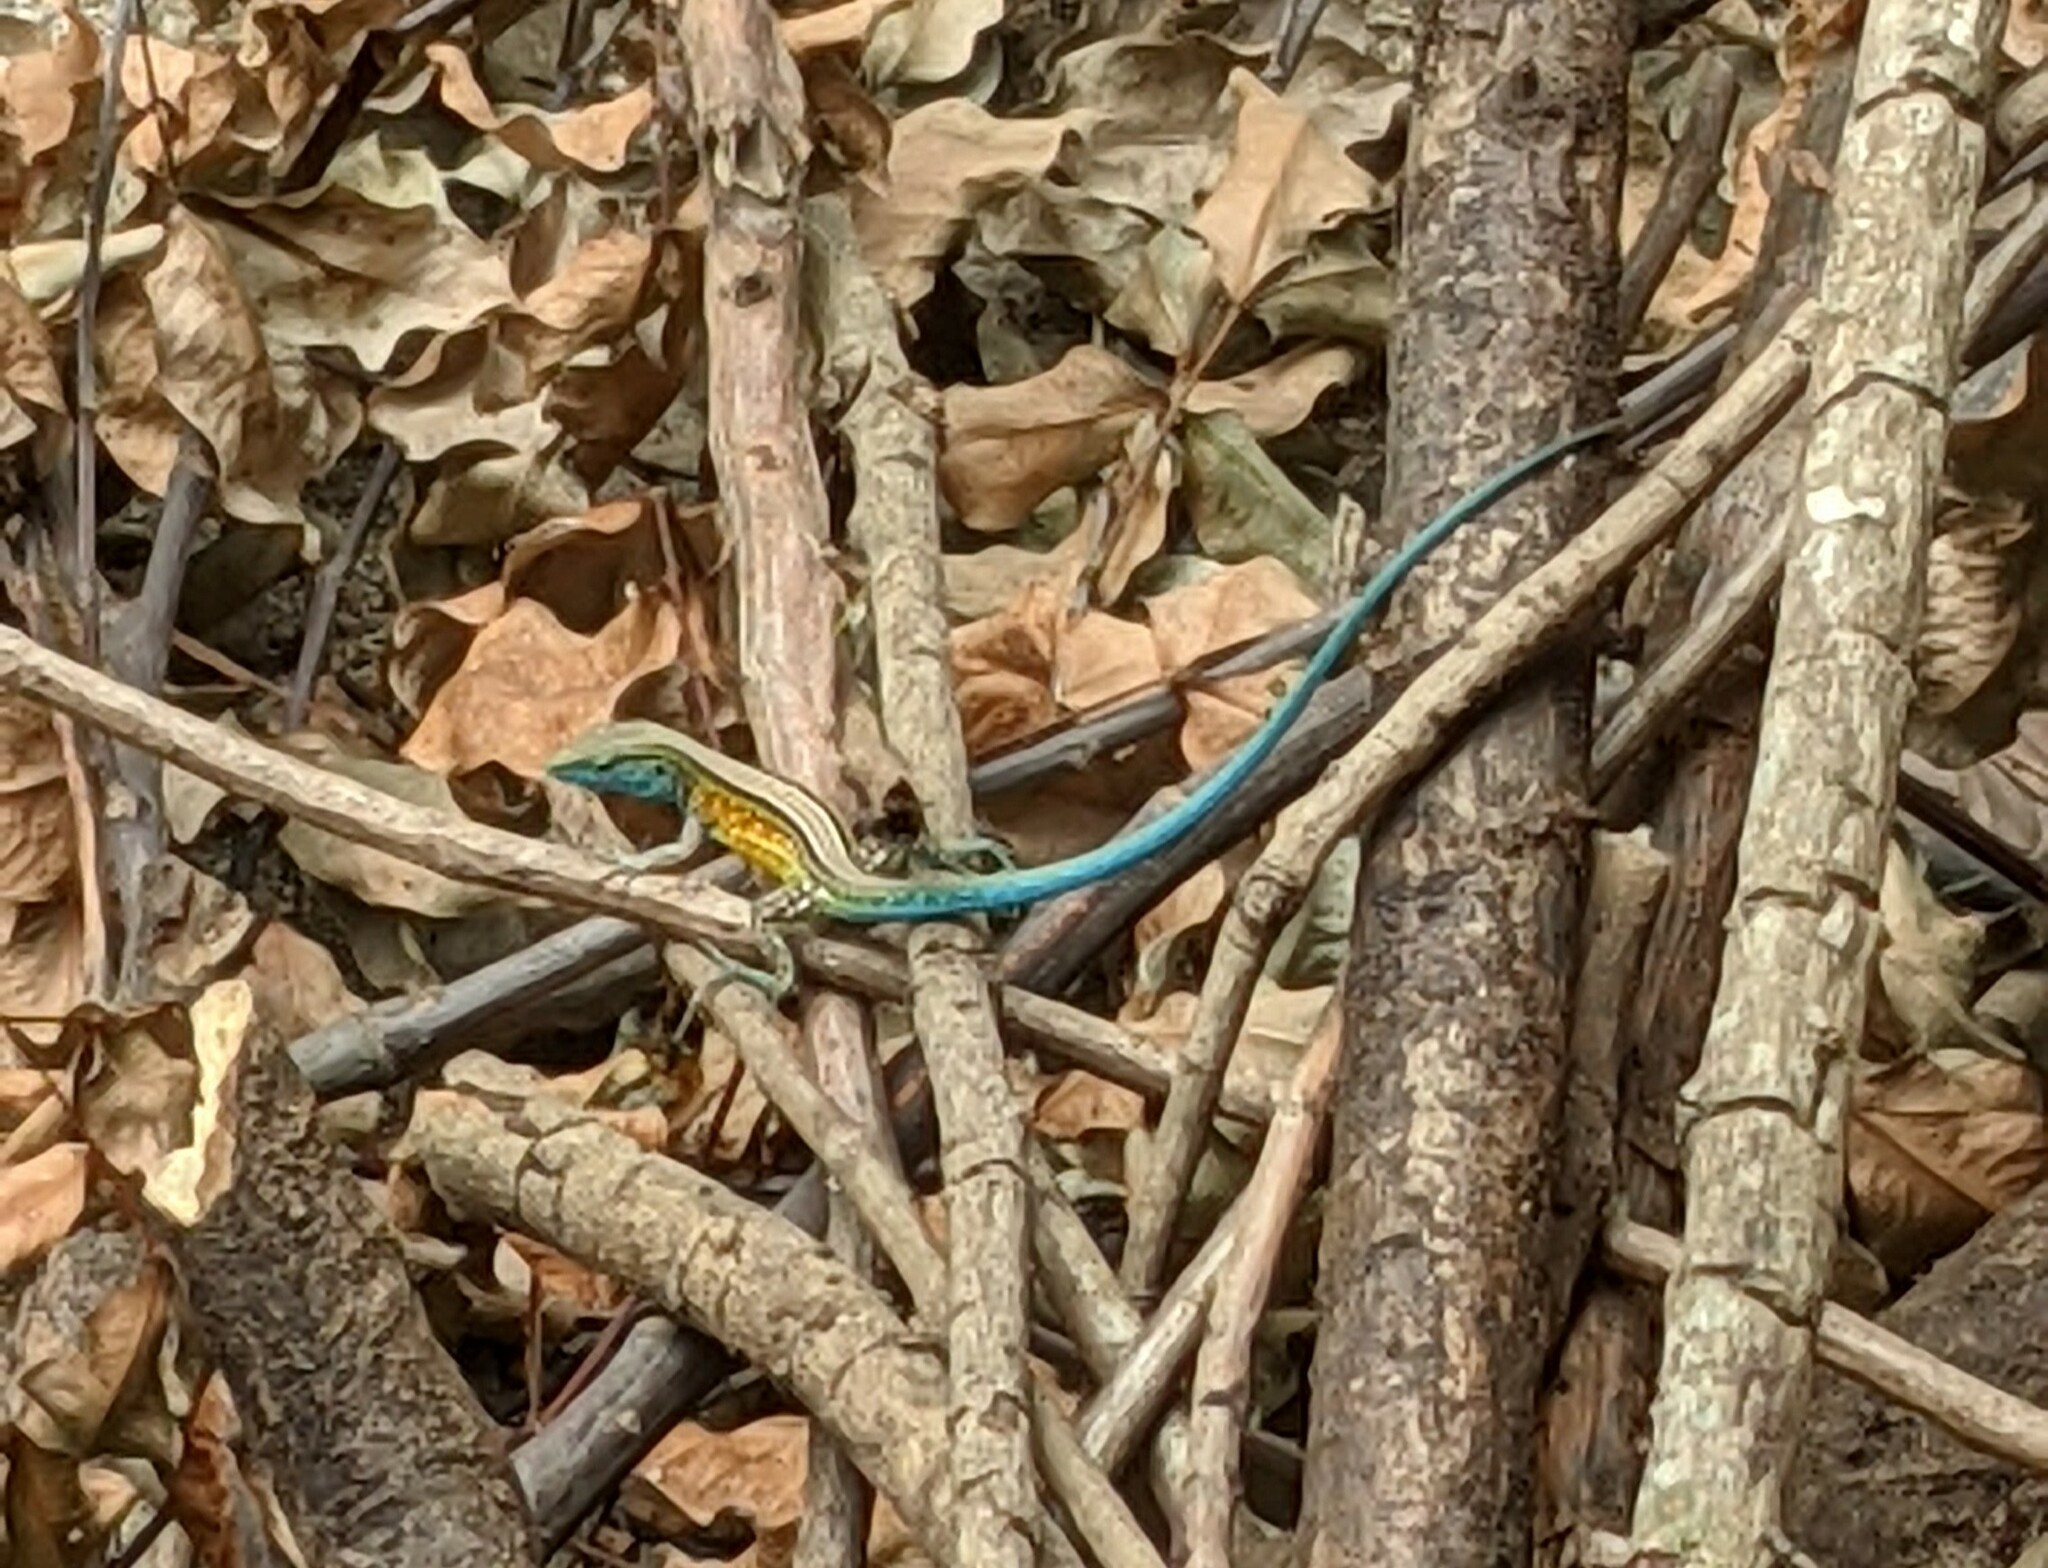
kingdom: Animalia
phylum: Chordata
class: Squamata
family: Teiidae
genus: Cnemidophorus
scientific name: Cnemidophorus gaigei
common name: Gaige’s rainbow lizard
